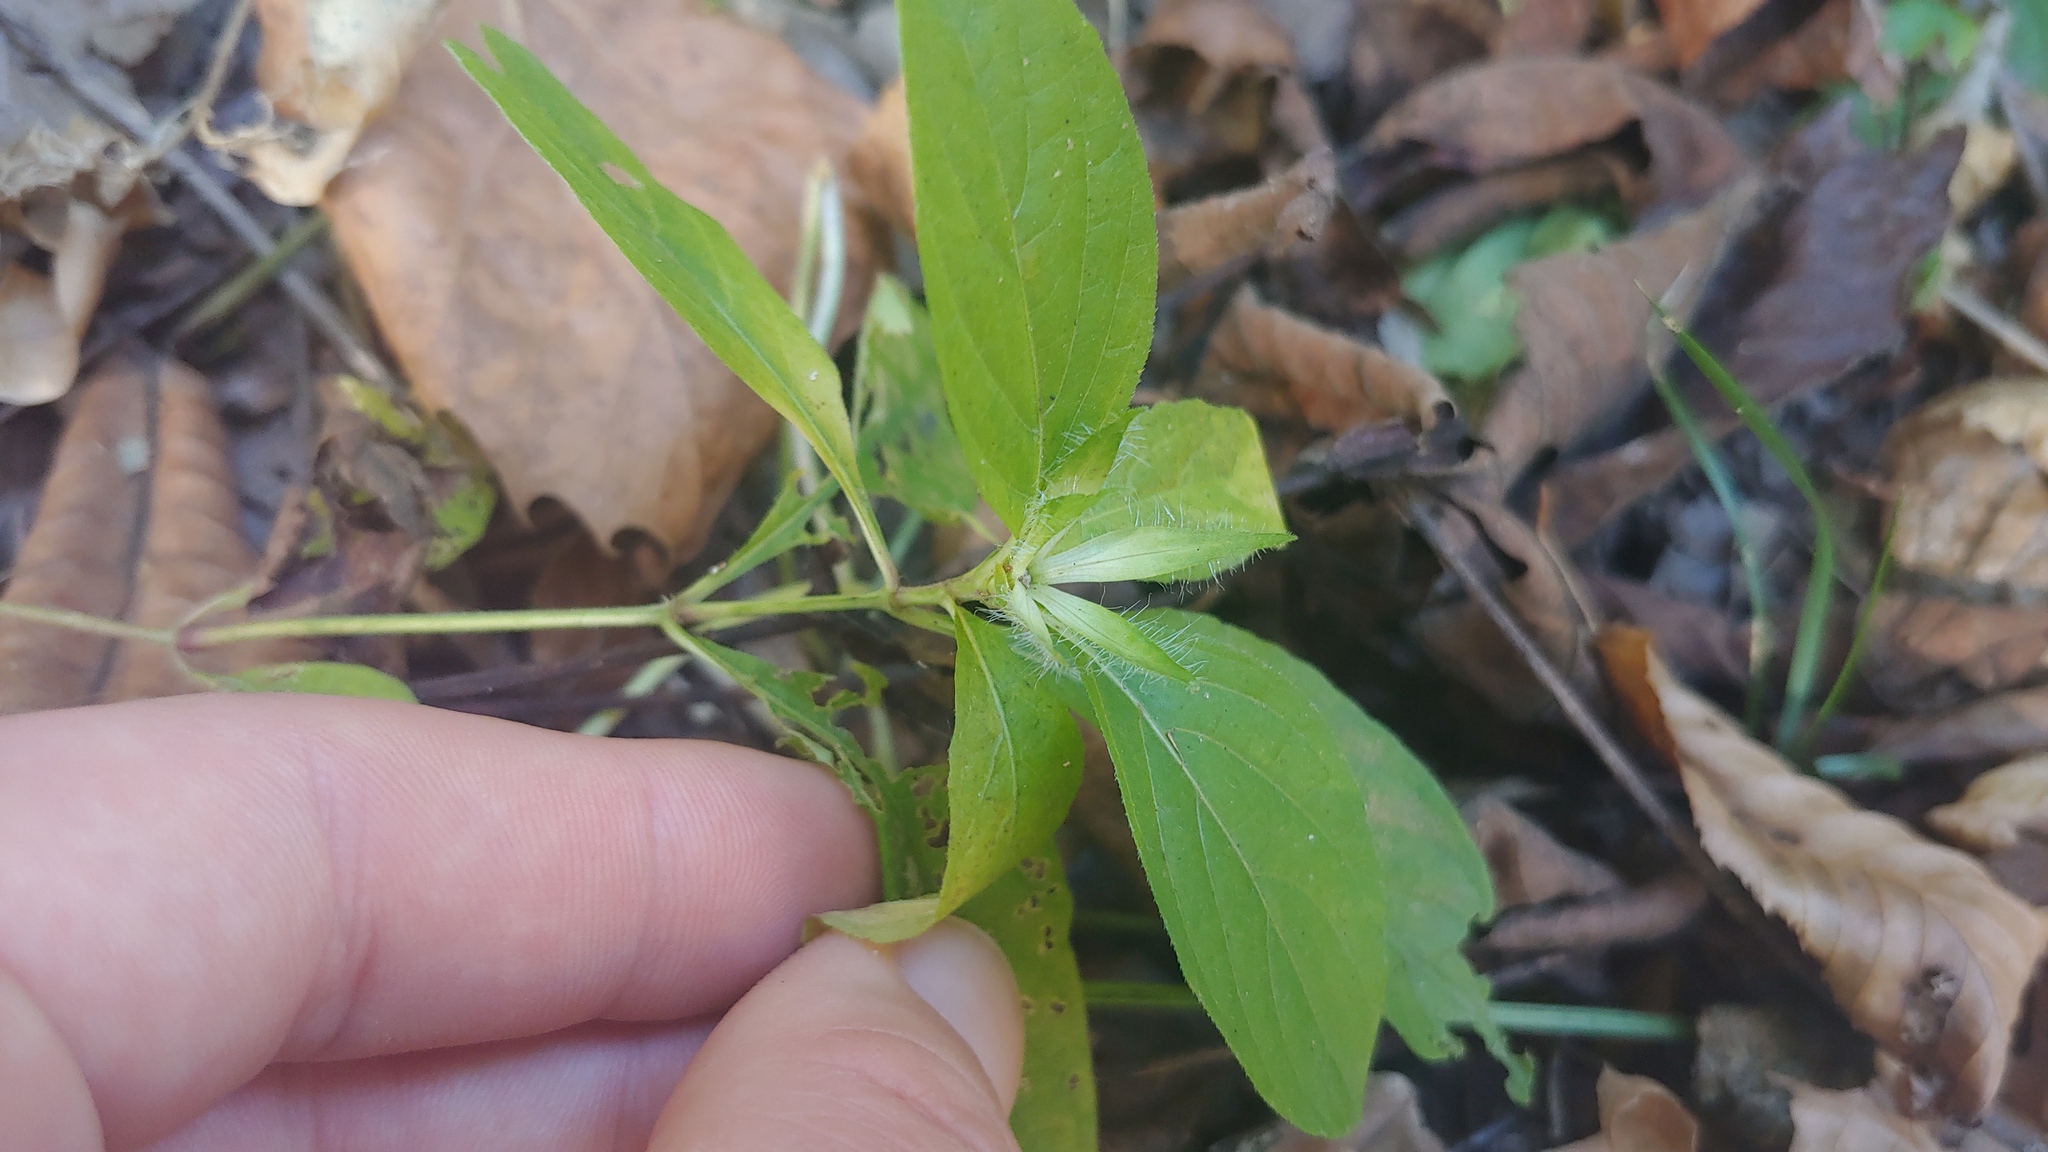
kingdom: Plantae
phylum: Tracheophyta
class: Magnoliopsida
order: Lamiales
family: Acanthaceae
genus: Ruellia
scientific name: Ruellia strepens
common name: Limestone wild petunia
